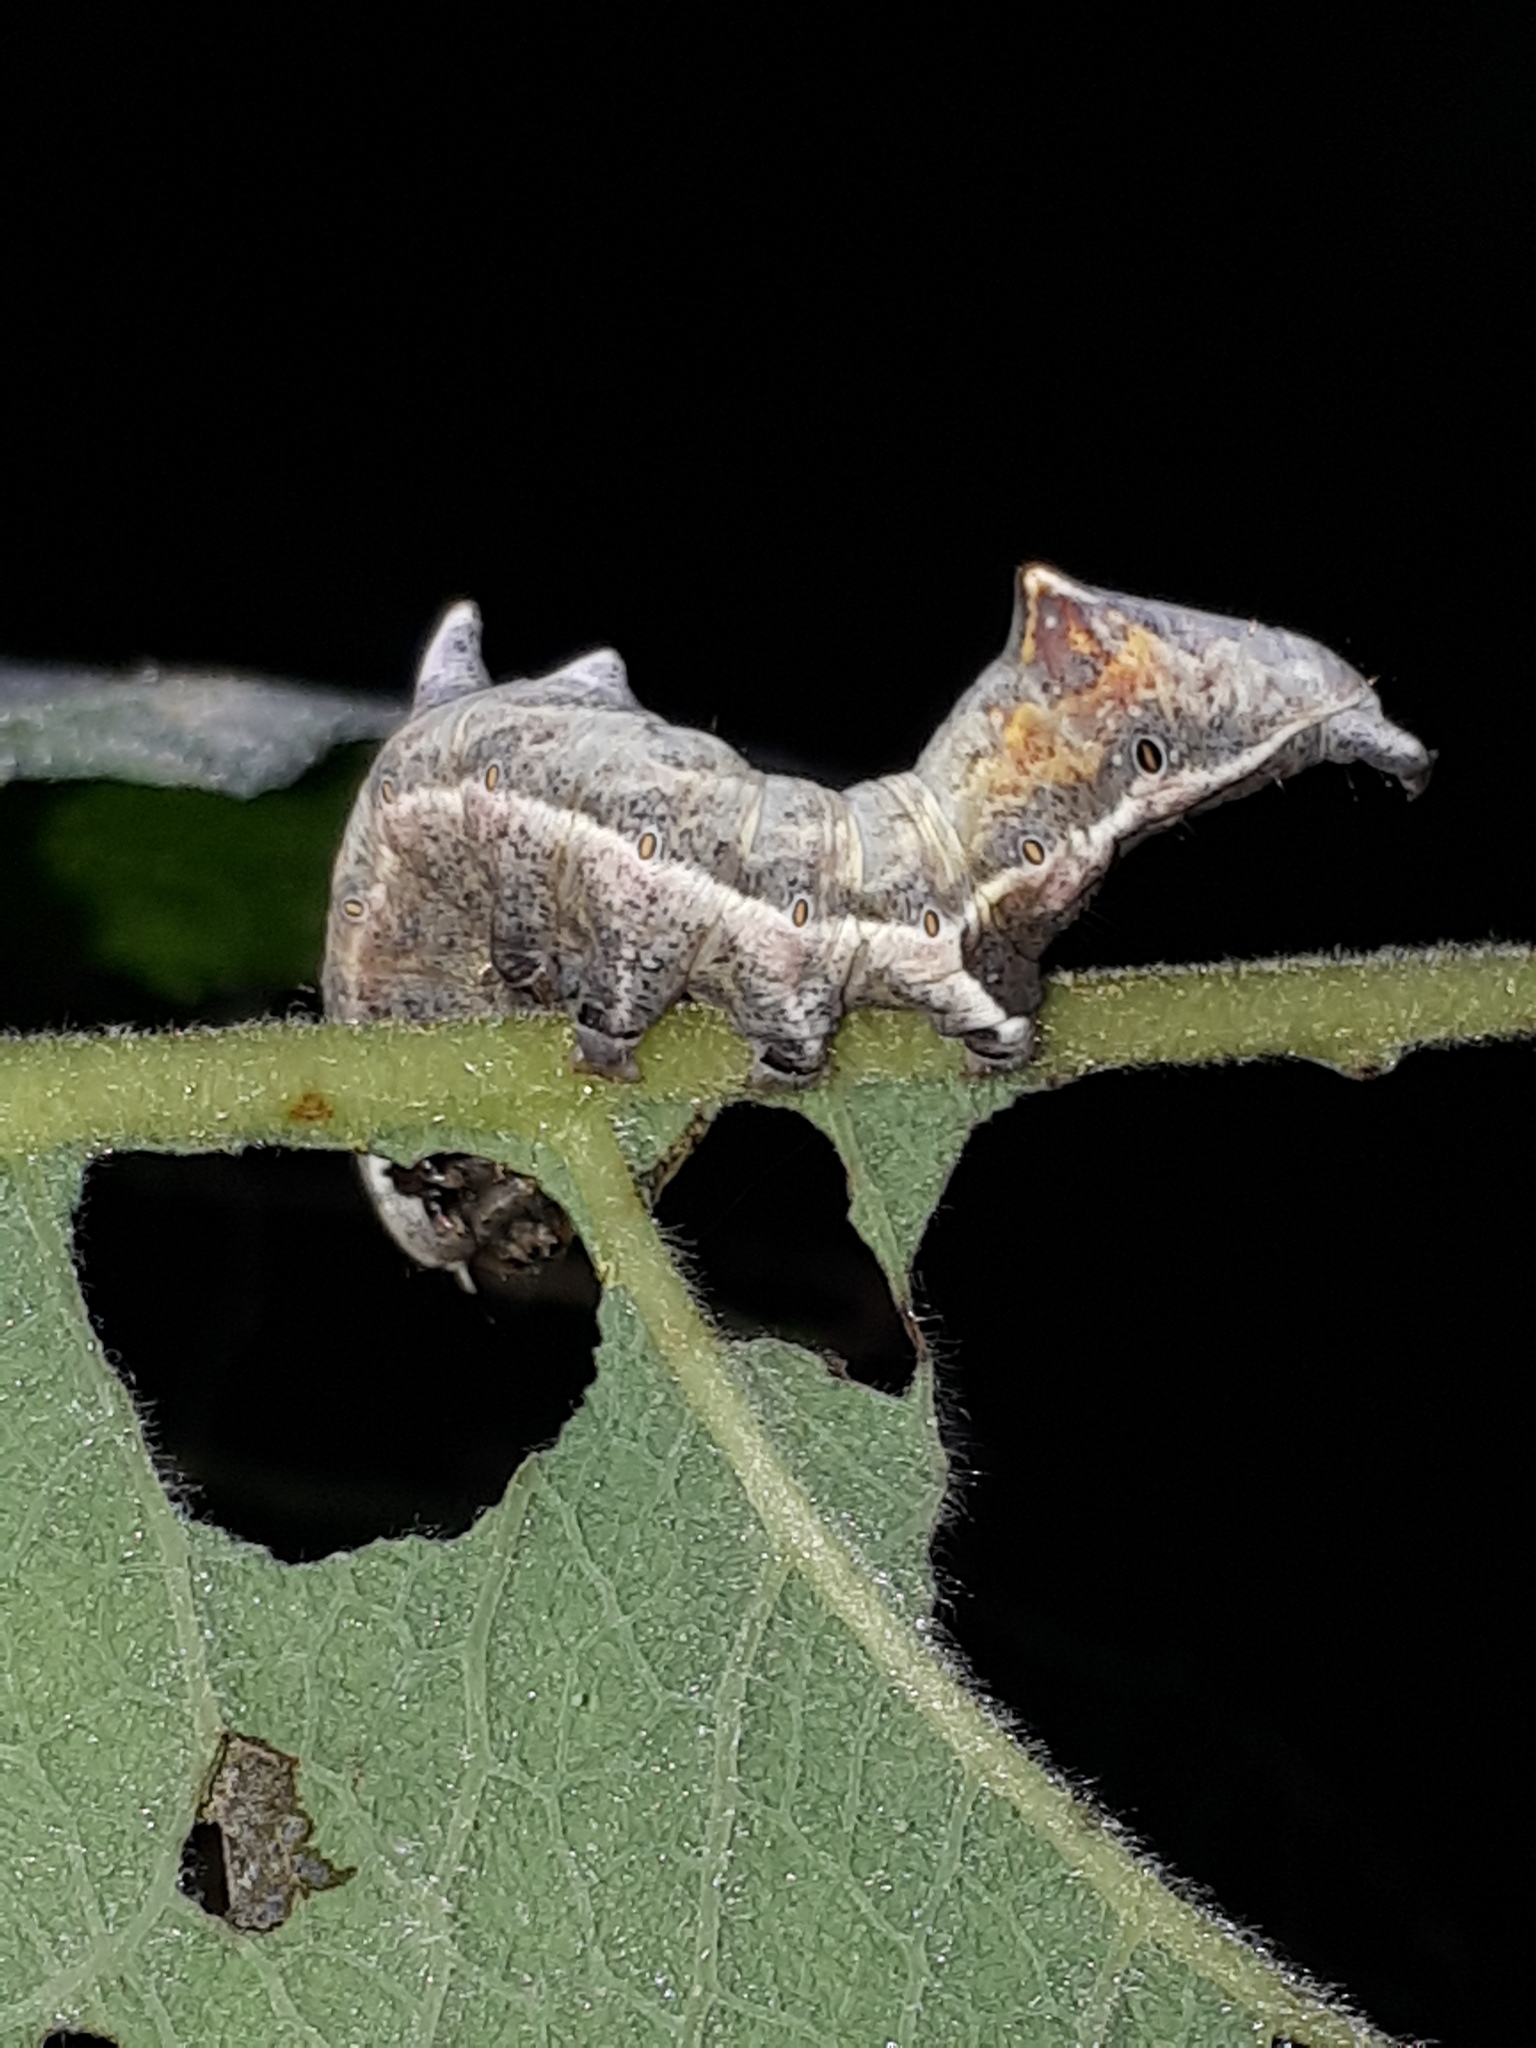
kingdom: Animalia
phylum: Arthropoda
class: Insecta
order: Lepidoptera
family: Notodontidae
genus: Notodonta
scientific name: Notodonta ziczac
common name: Pebble prominent
